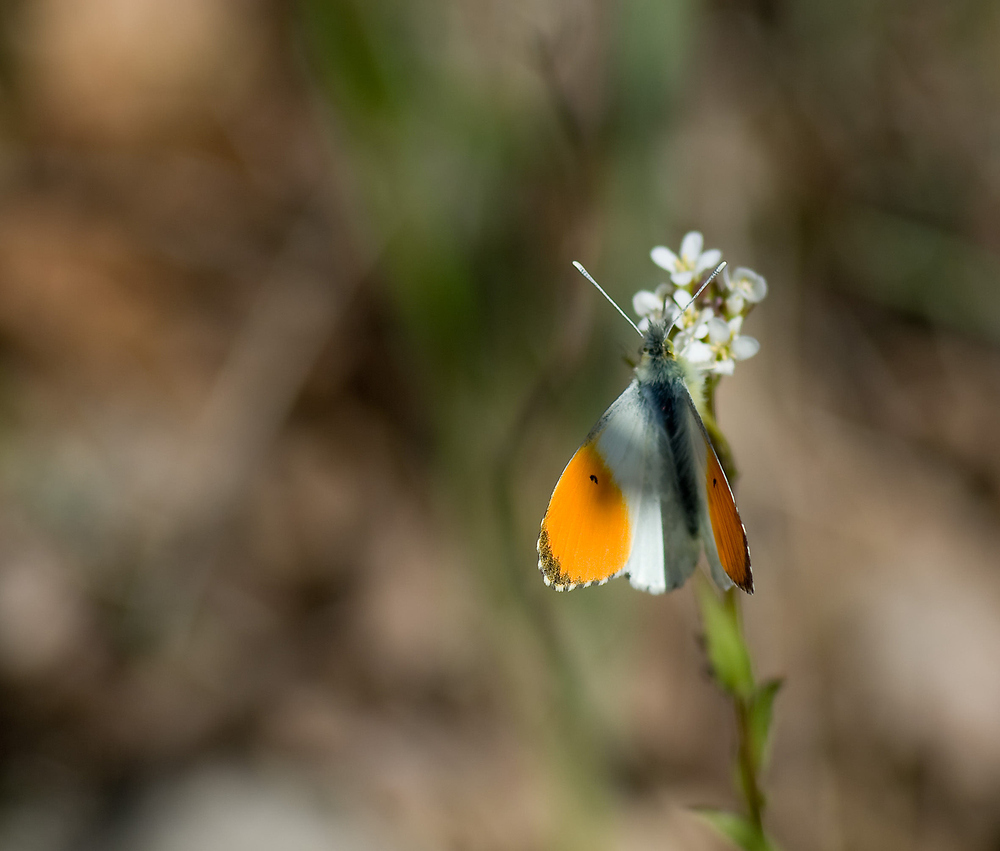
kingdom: Animalia
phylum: Arthropoda
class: Insecta
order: Lepidoptera
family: Pieridae
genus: Anthocharis
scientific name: Anthocharis cardamines
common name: Orange-tip
